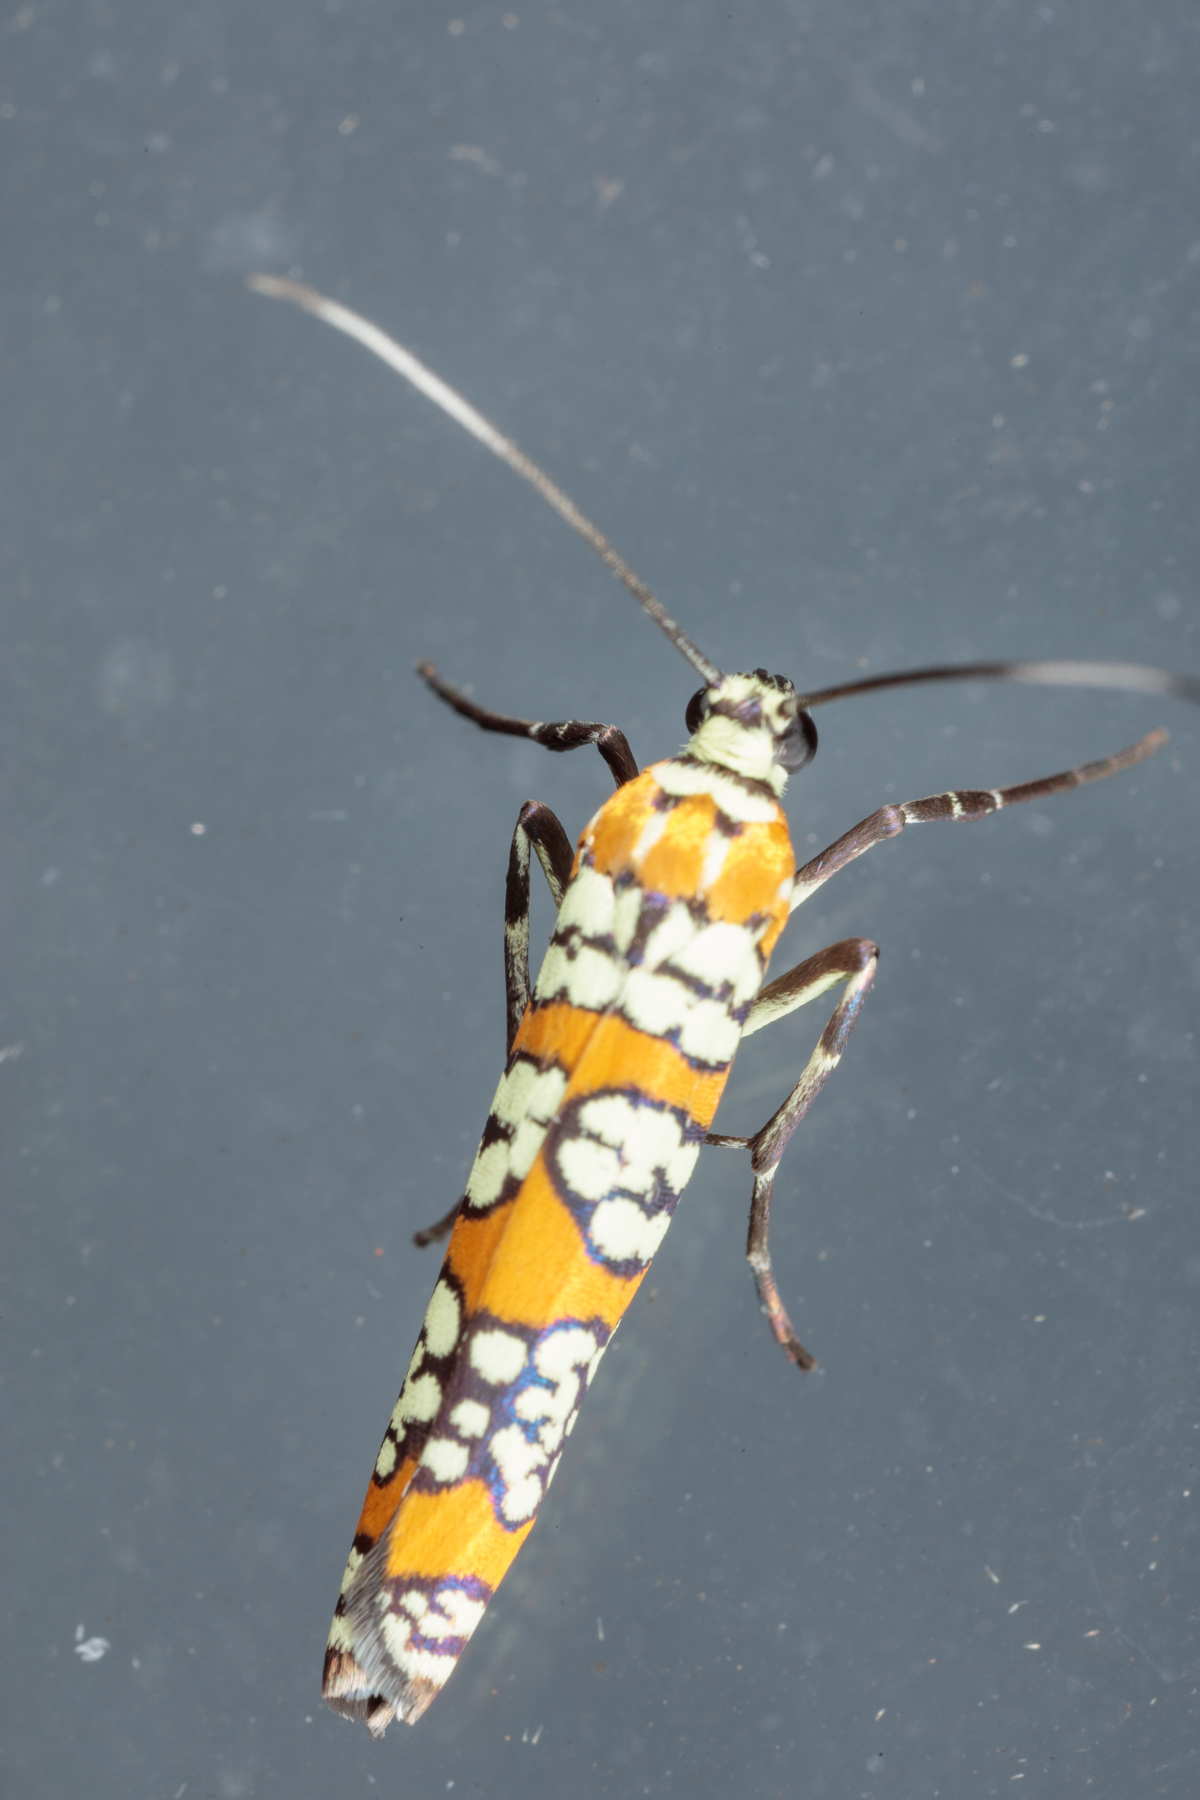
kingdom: Animalia
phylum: Arthropoda
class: Insecta
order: Lepidoptera
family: Attevidae
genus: Atteva
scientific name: Atteva punctella
